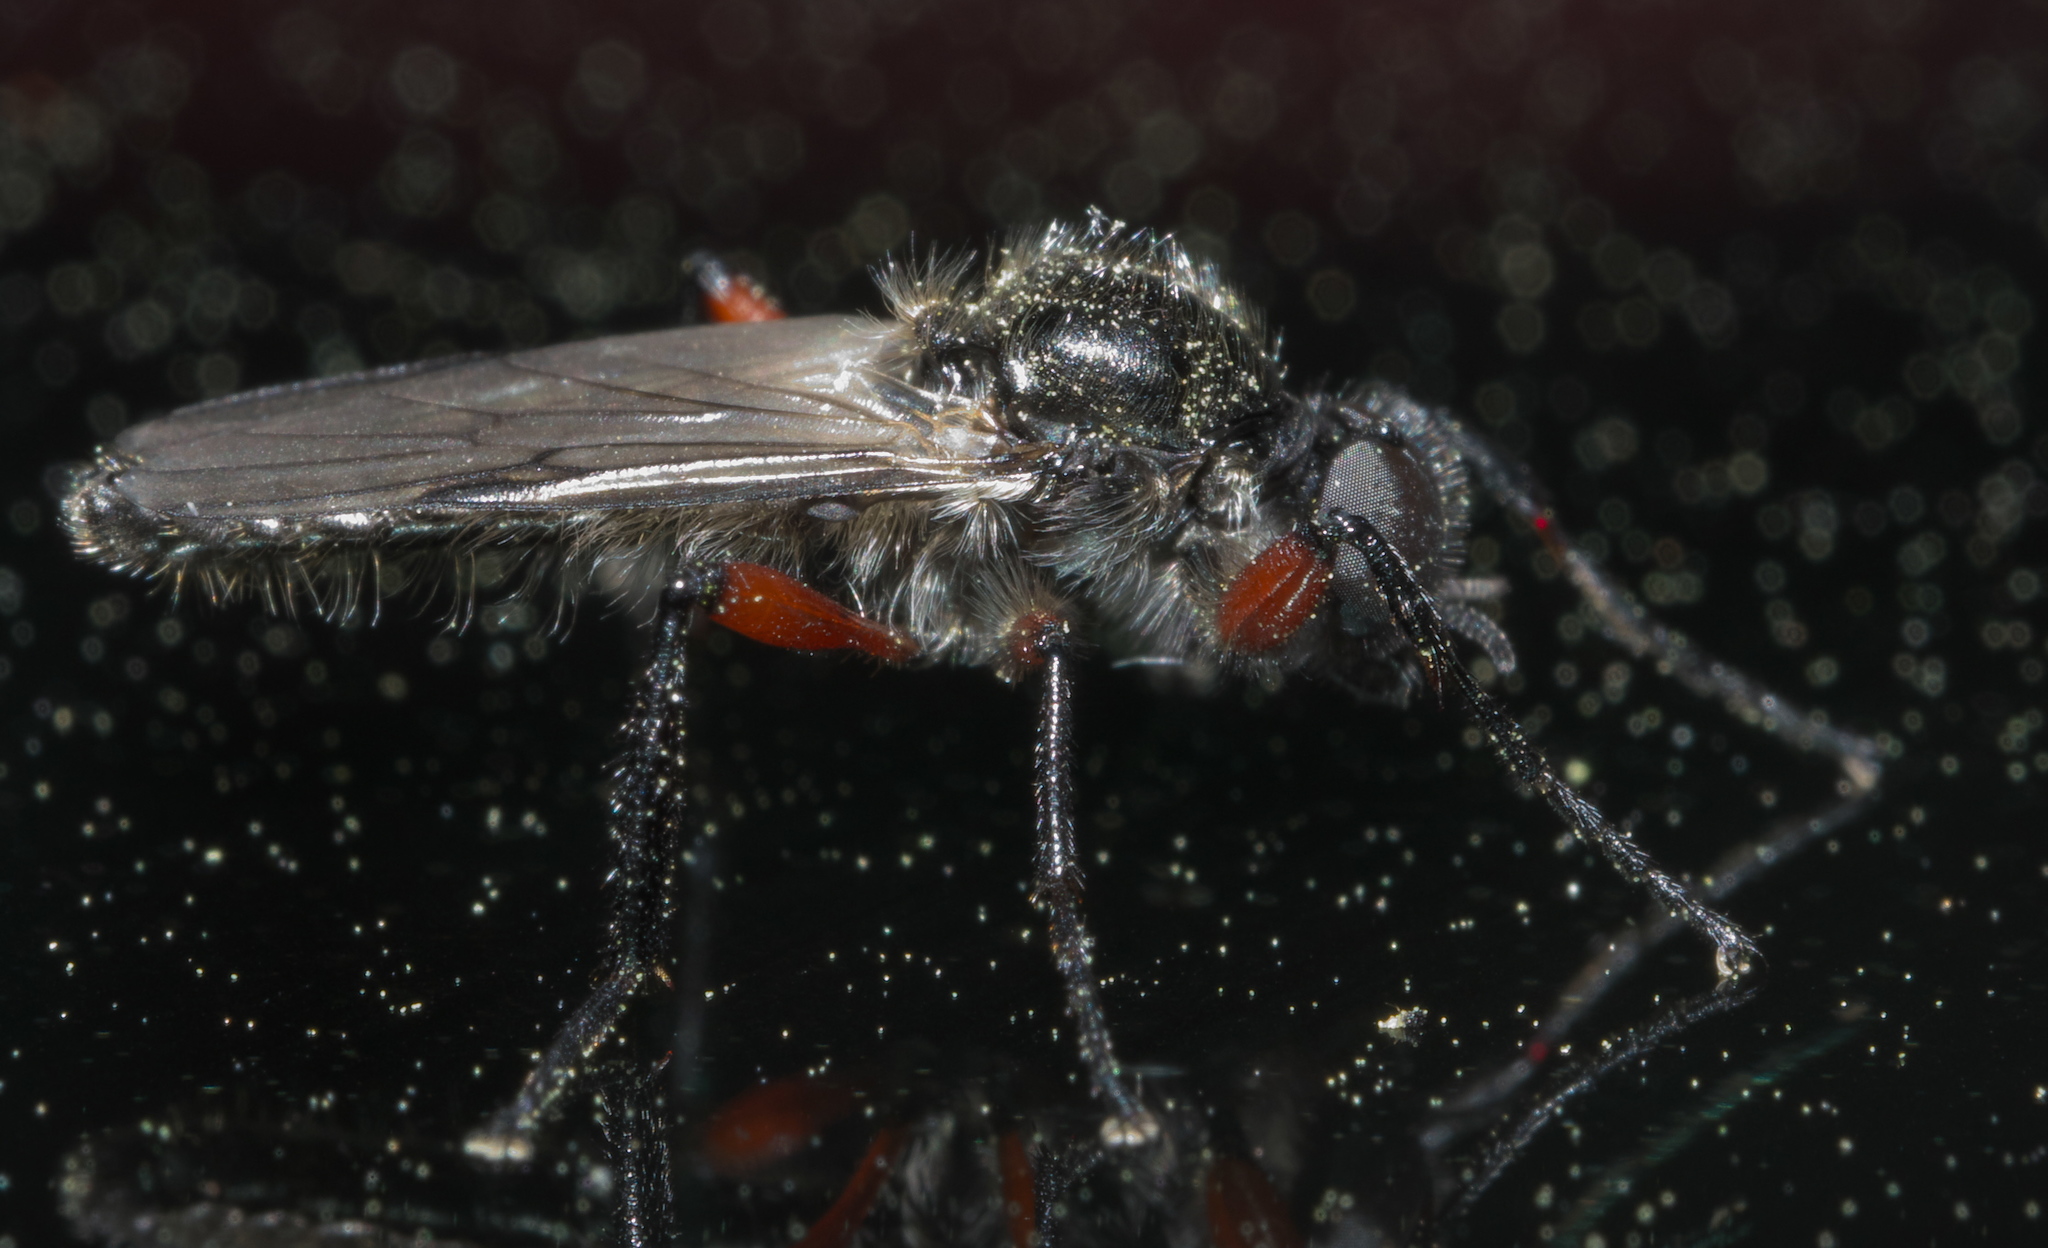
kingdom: Animalia
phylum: Arthropoda
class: Insecta
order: Diptera
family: Bibionidae
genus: Bibio
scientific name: Bibio femoratus
